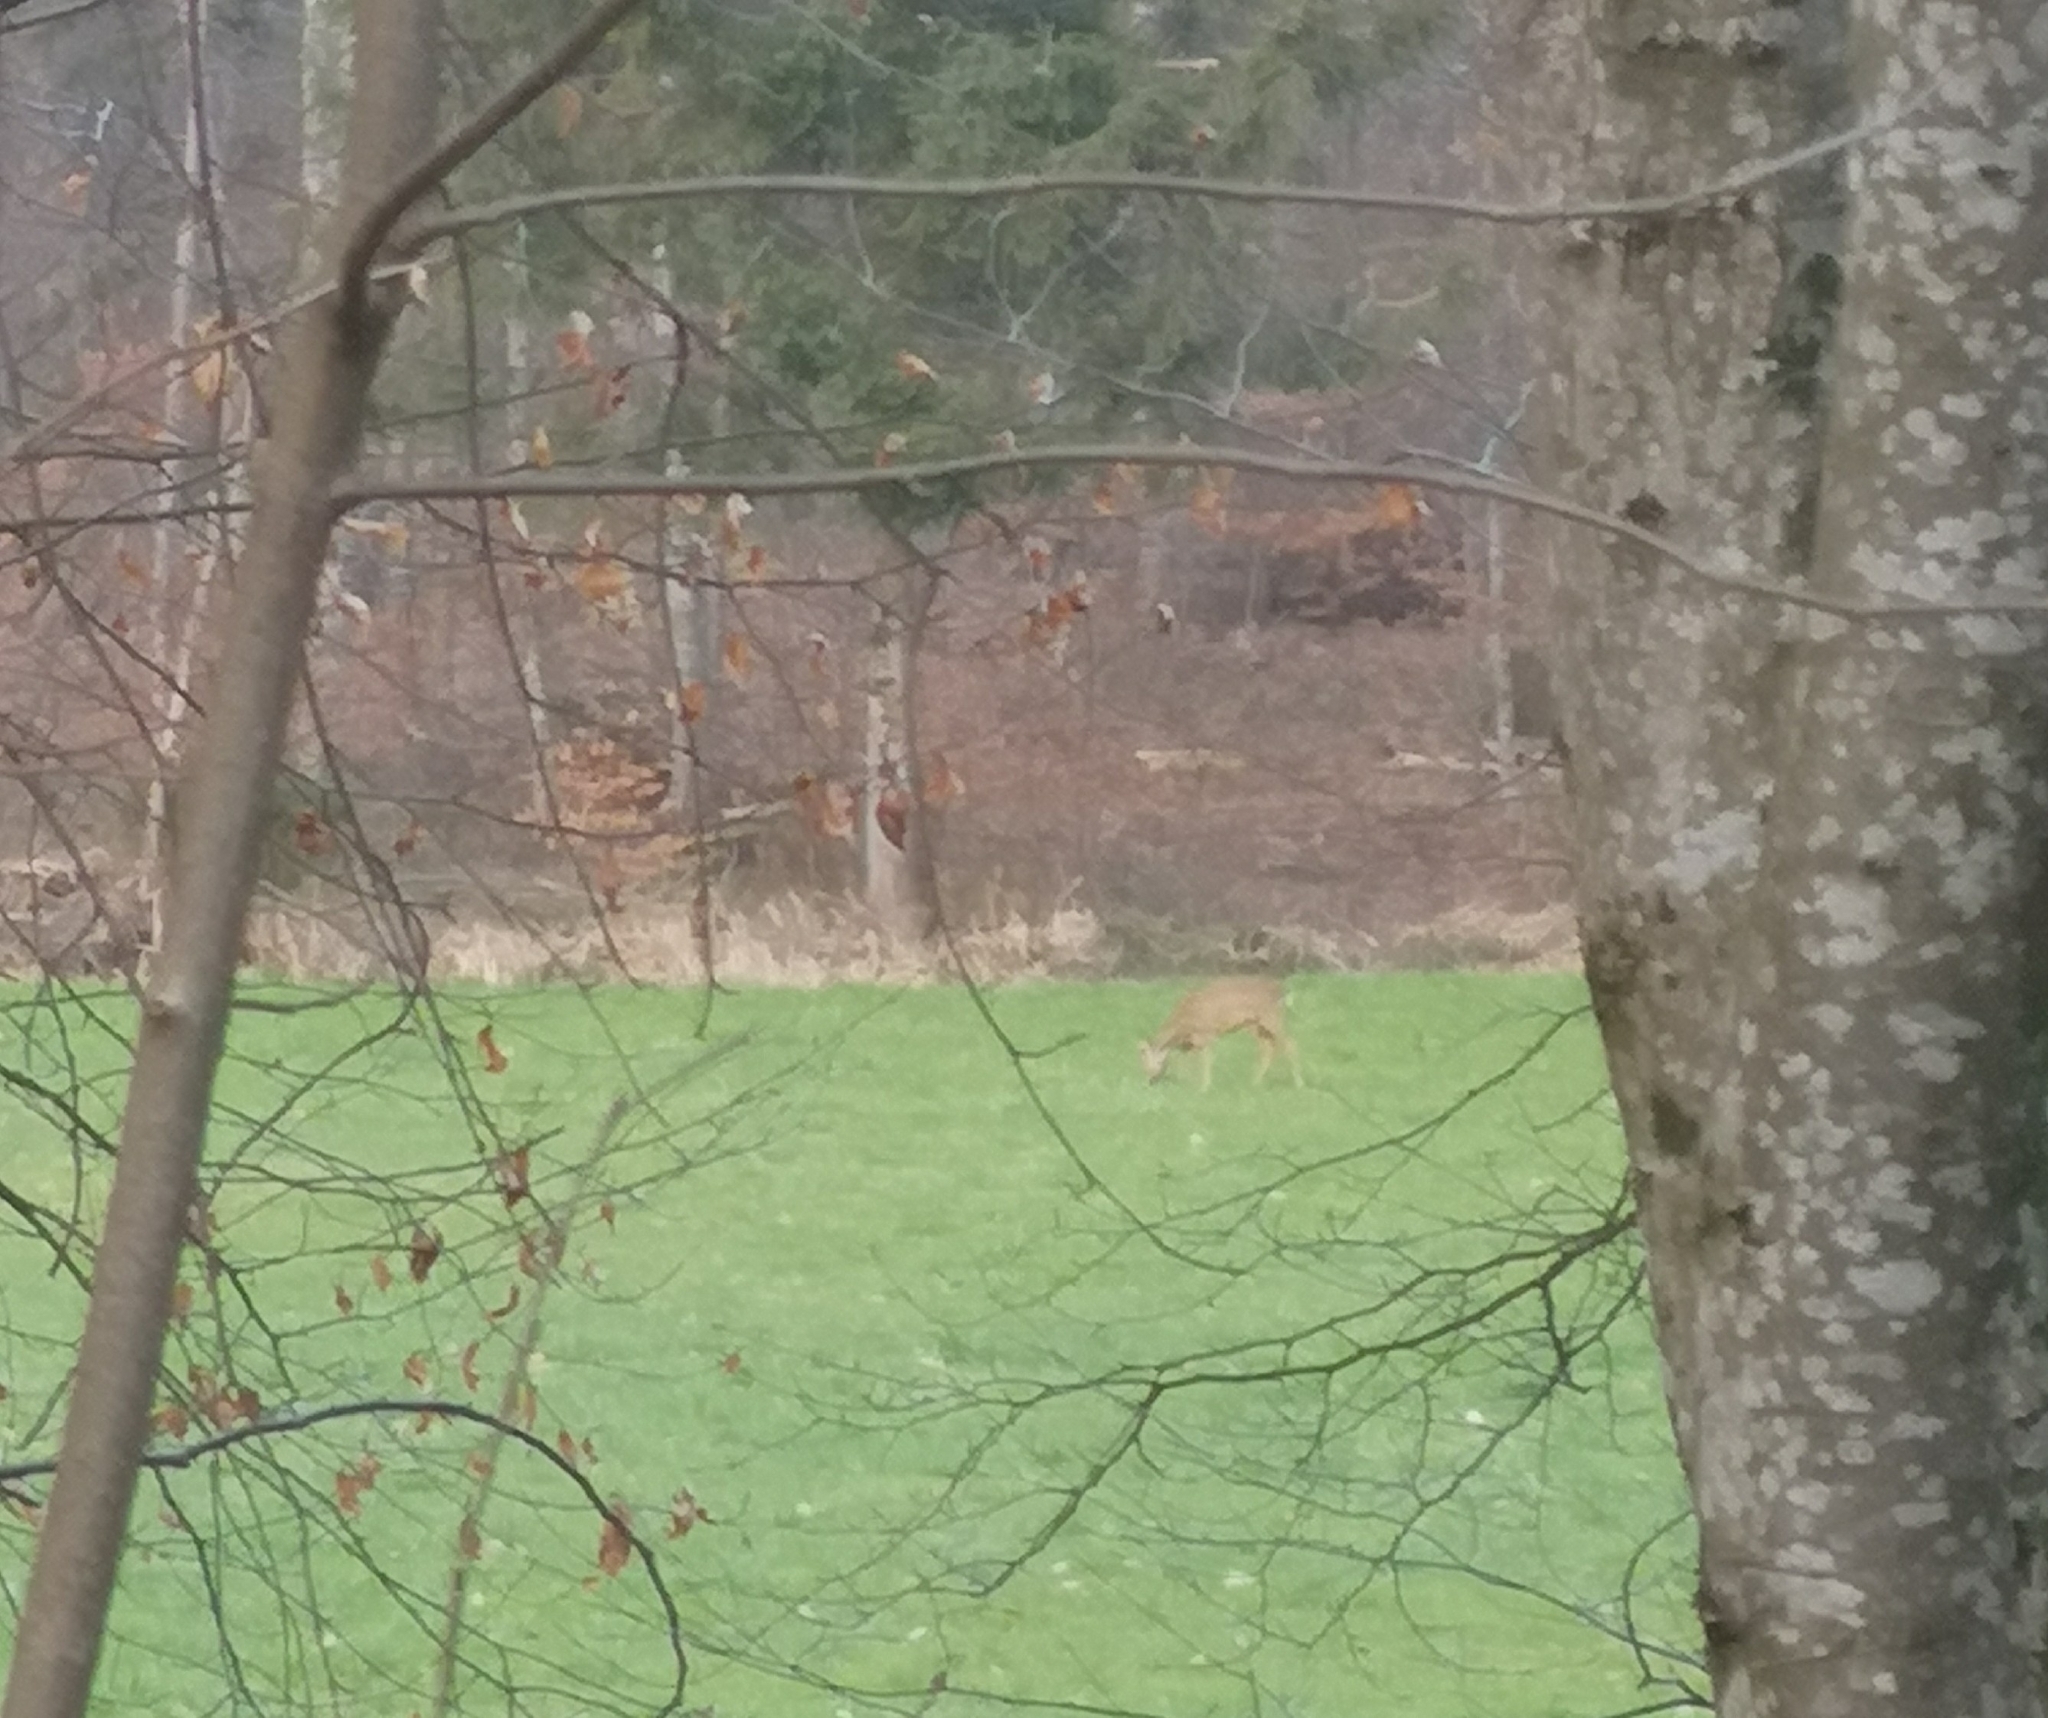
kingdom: Animalia
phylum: Chordata
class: Mammalia
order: Artiodactyla
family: Cervidae
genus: Capreolus
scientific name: Capreolus capreolus
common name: Western roe deer
